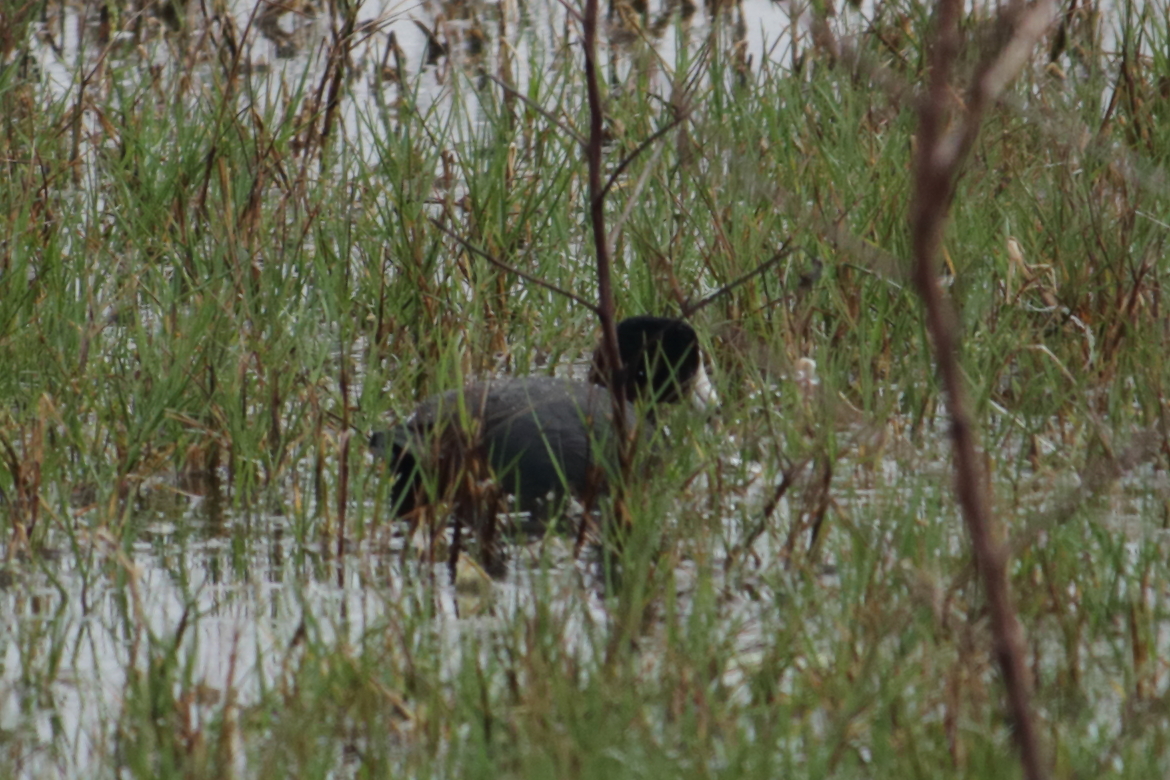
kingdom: Animalia
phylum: Chordata
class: Aves
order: Gruiformes
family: Rallidae
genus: Fulica
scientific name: Fulica americana
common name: American coot
